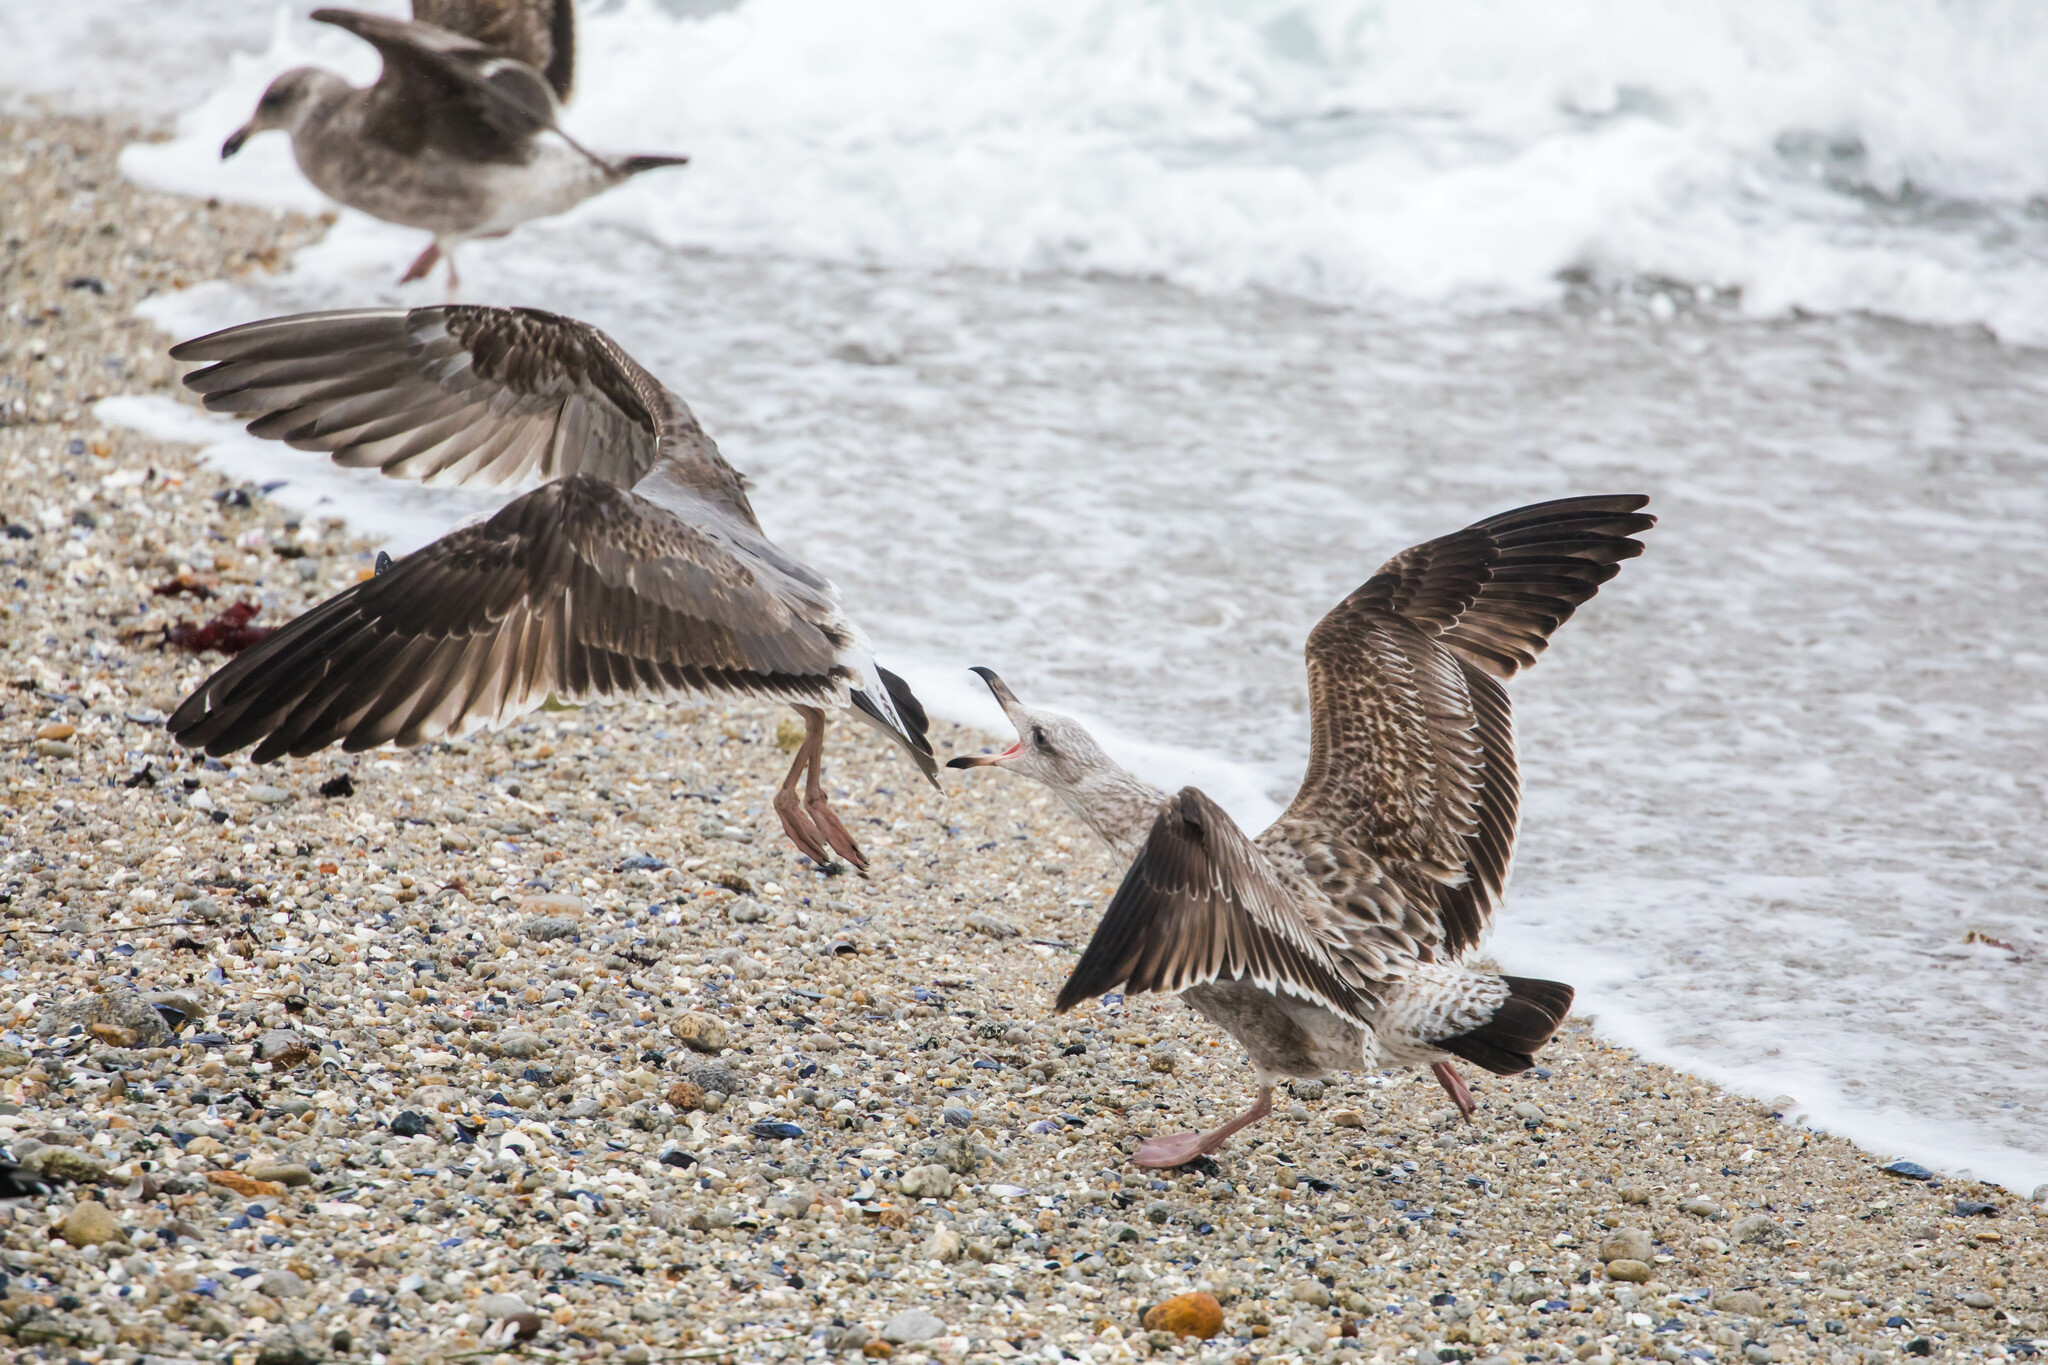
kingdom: Animalia
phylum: Chordata
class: Aves
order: Charadriiformes
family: Laridae
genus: Larus
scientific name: Larus occidentalis
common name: Western gull
